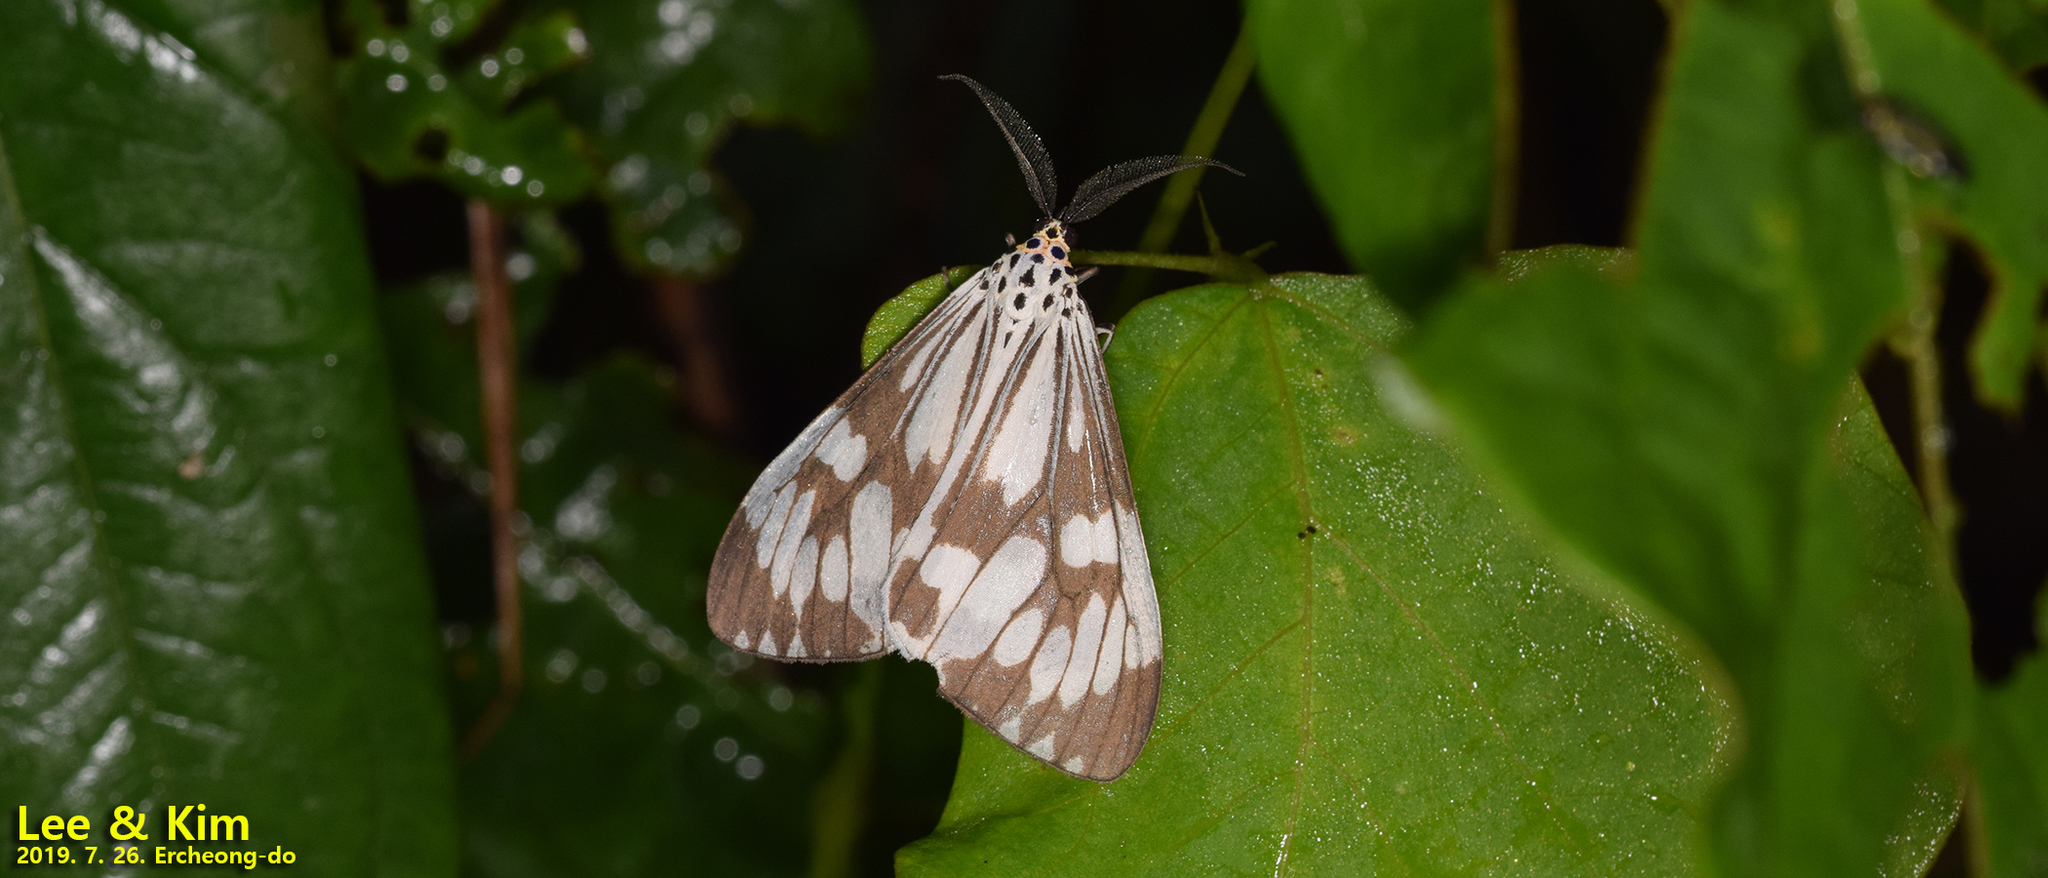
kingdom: Animalia
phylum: Arthropoda
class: Insecta
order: Lepidoptera
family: Erebidae
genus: Nyctemera
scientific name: Nyctemera adversata
